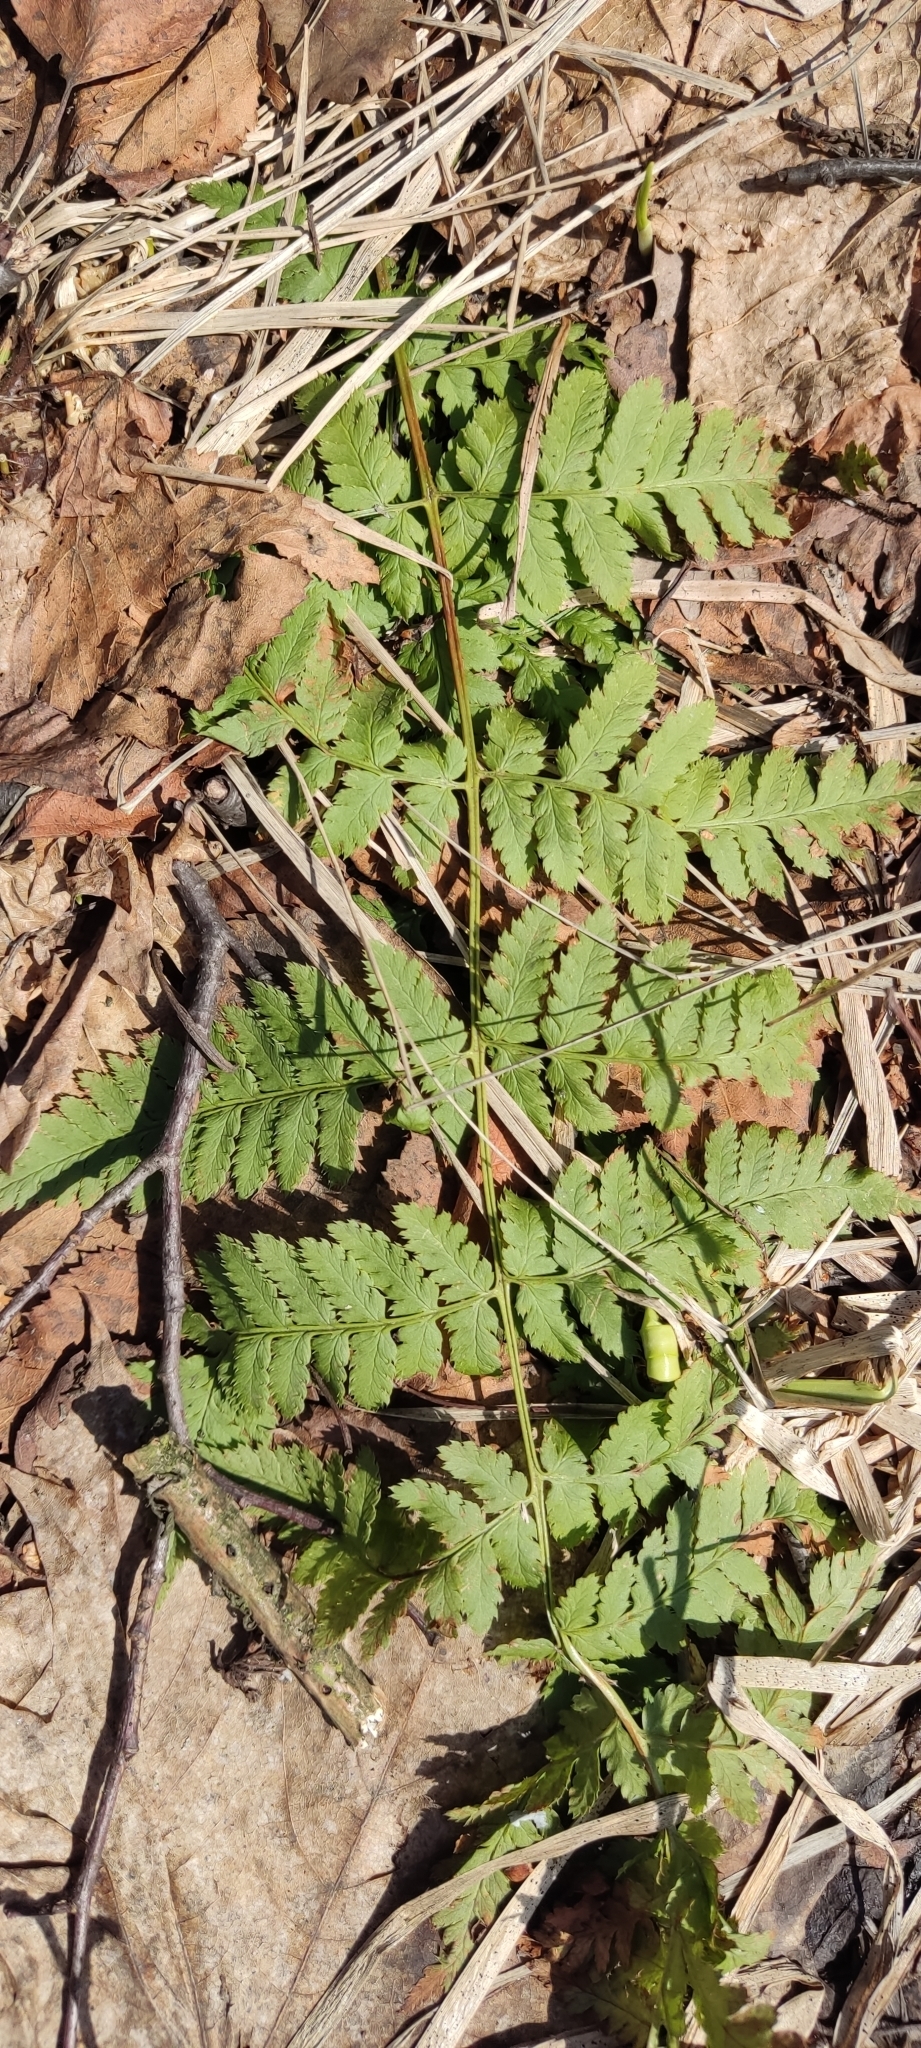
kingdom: Plantae
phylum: Tracheophyta
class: Polypodiopsida
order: Polypodiales
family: Dryopteridaceae
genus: Dryopteris
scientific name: Dryopteris carthusiana
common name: Narrow buckler-fern
